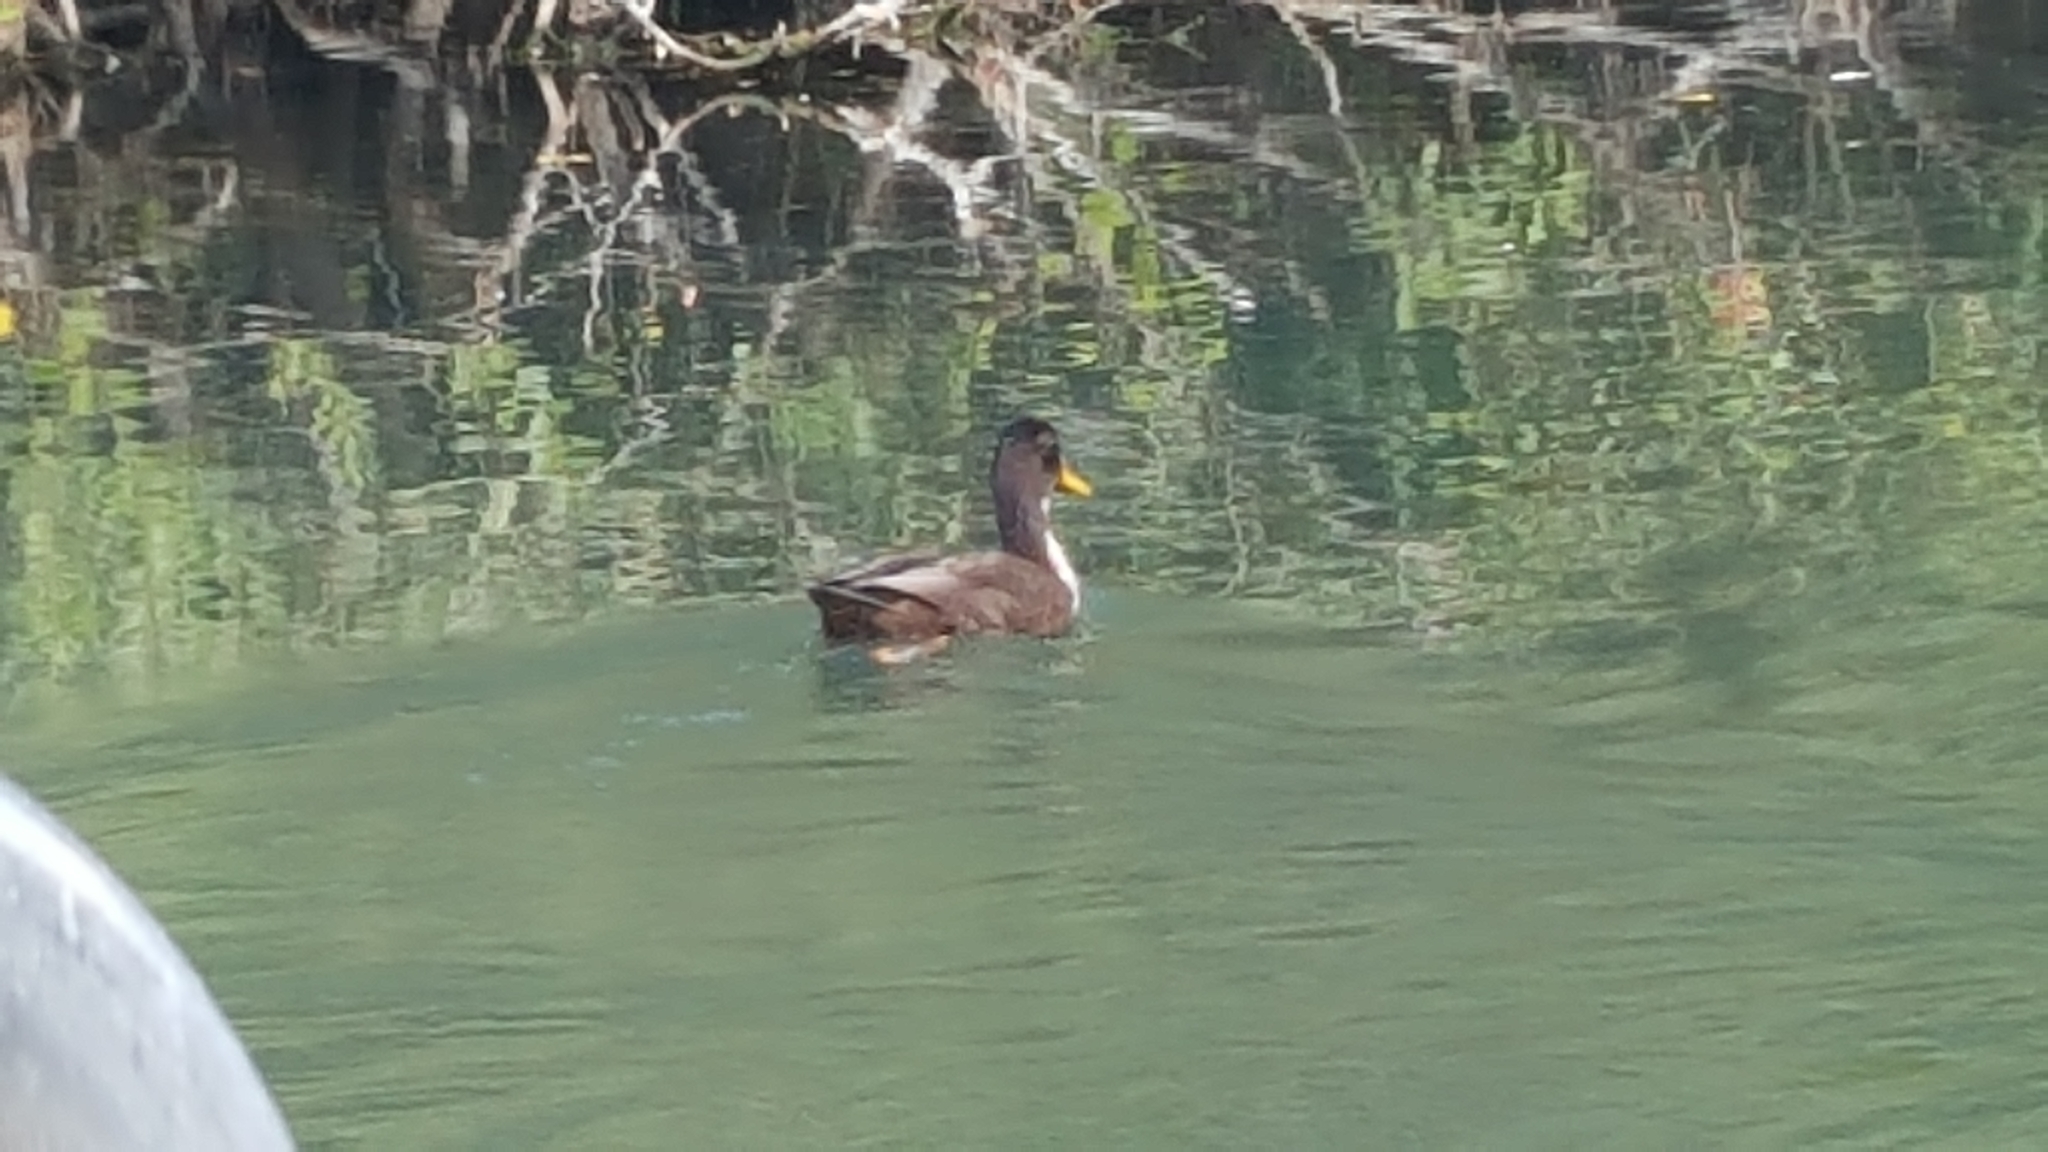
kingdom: Animalia
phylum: Chordata
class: Aves
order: Anseriformes
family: Anatidae
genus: Anas
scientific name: Anas platyrhynchos
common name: Mallard
